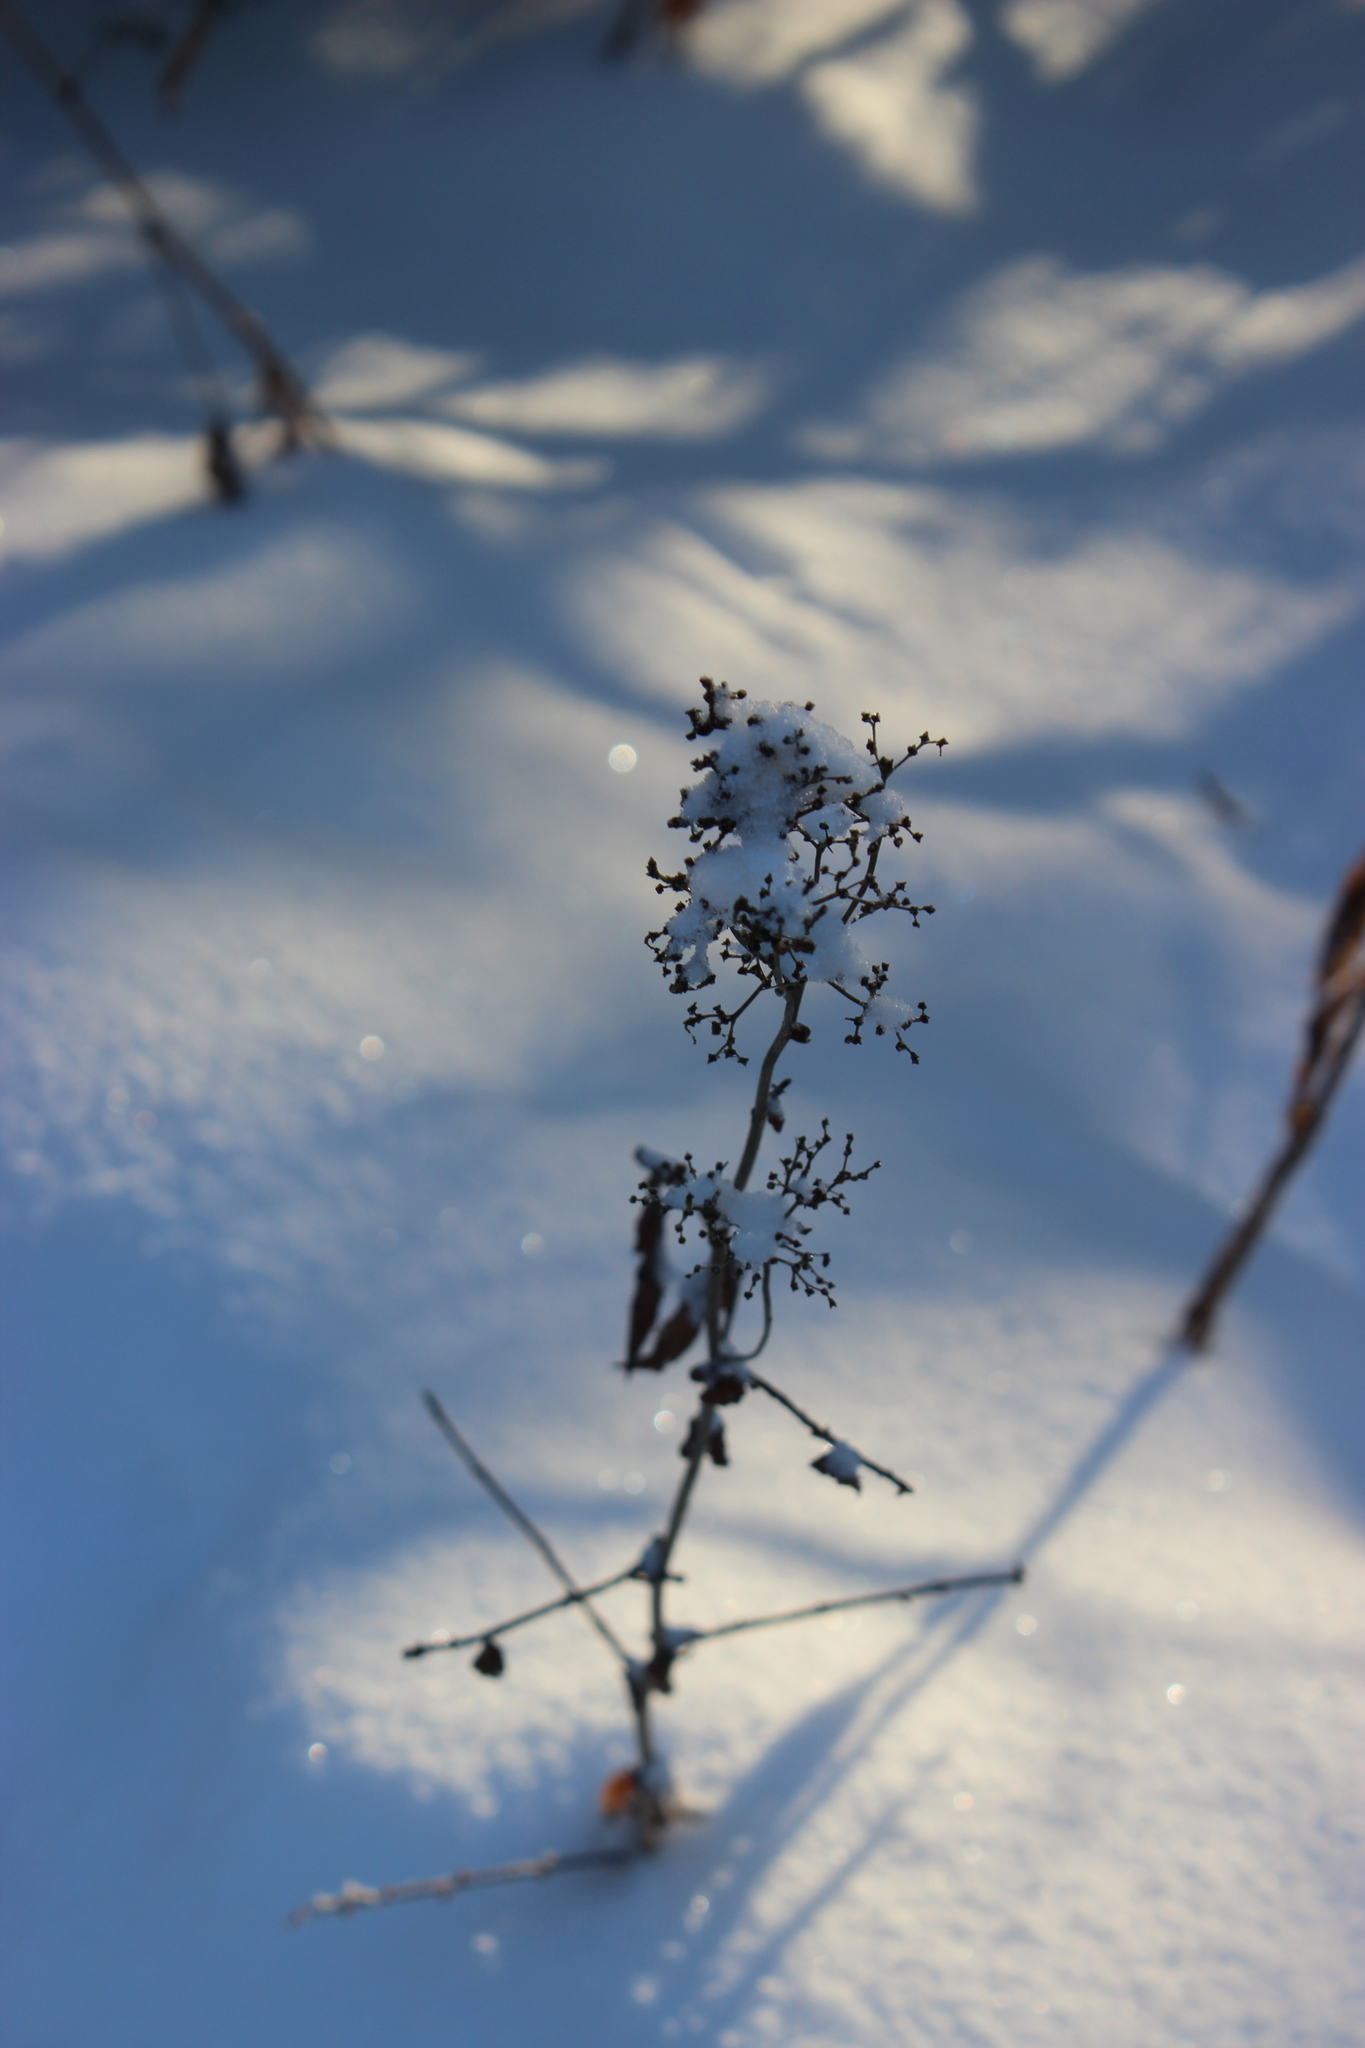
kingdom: Plantae
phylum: Tracheophyta
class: Magnoliopsida
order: Rosales
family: Rosaceae
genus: Filipendula
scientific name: Filipendula ulmaria
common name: Meadowsweet
